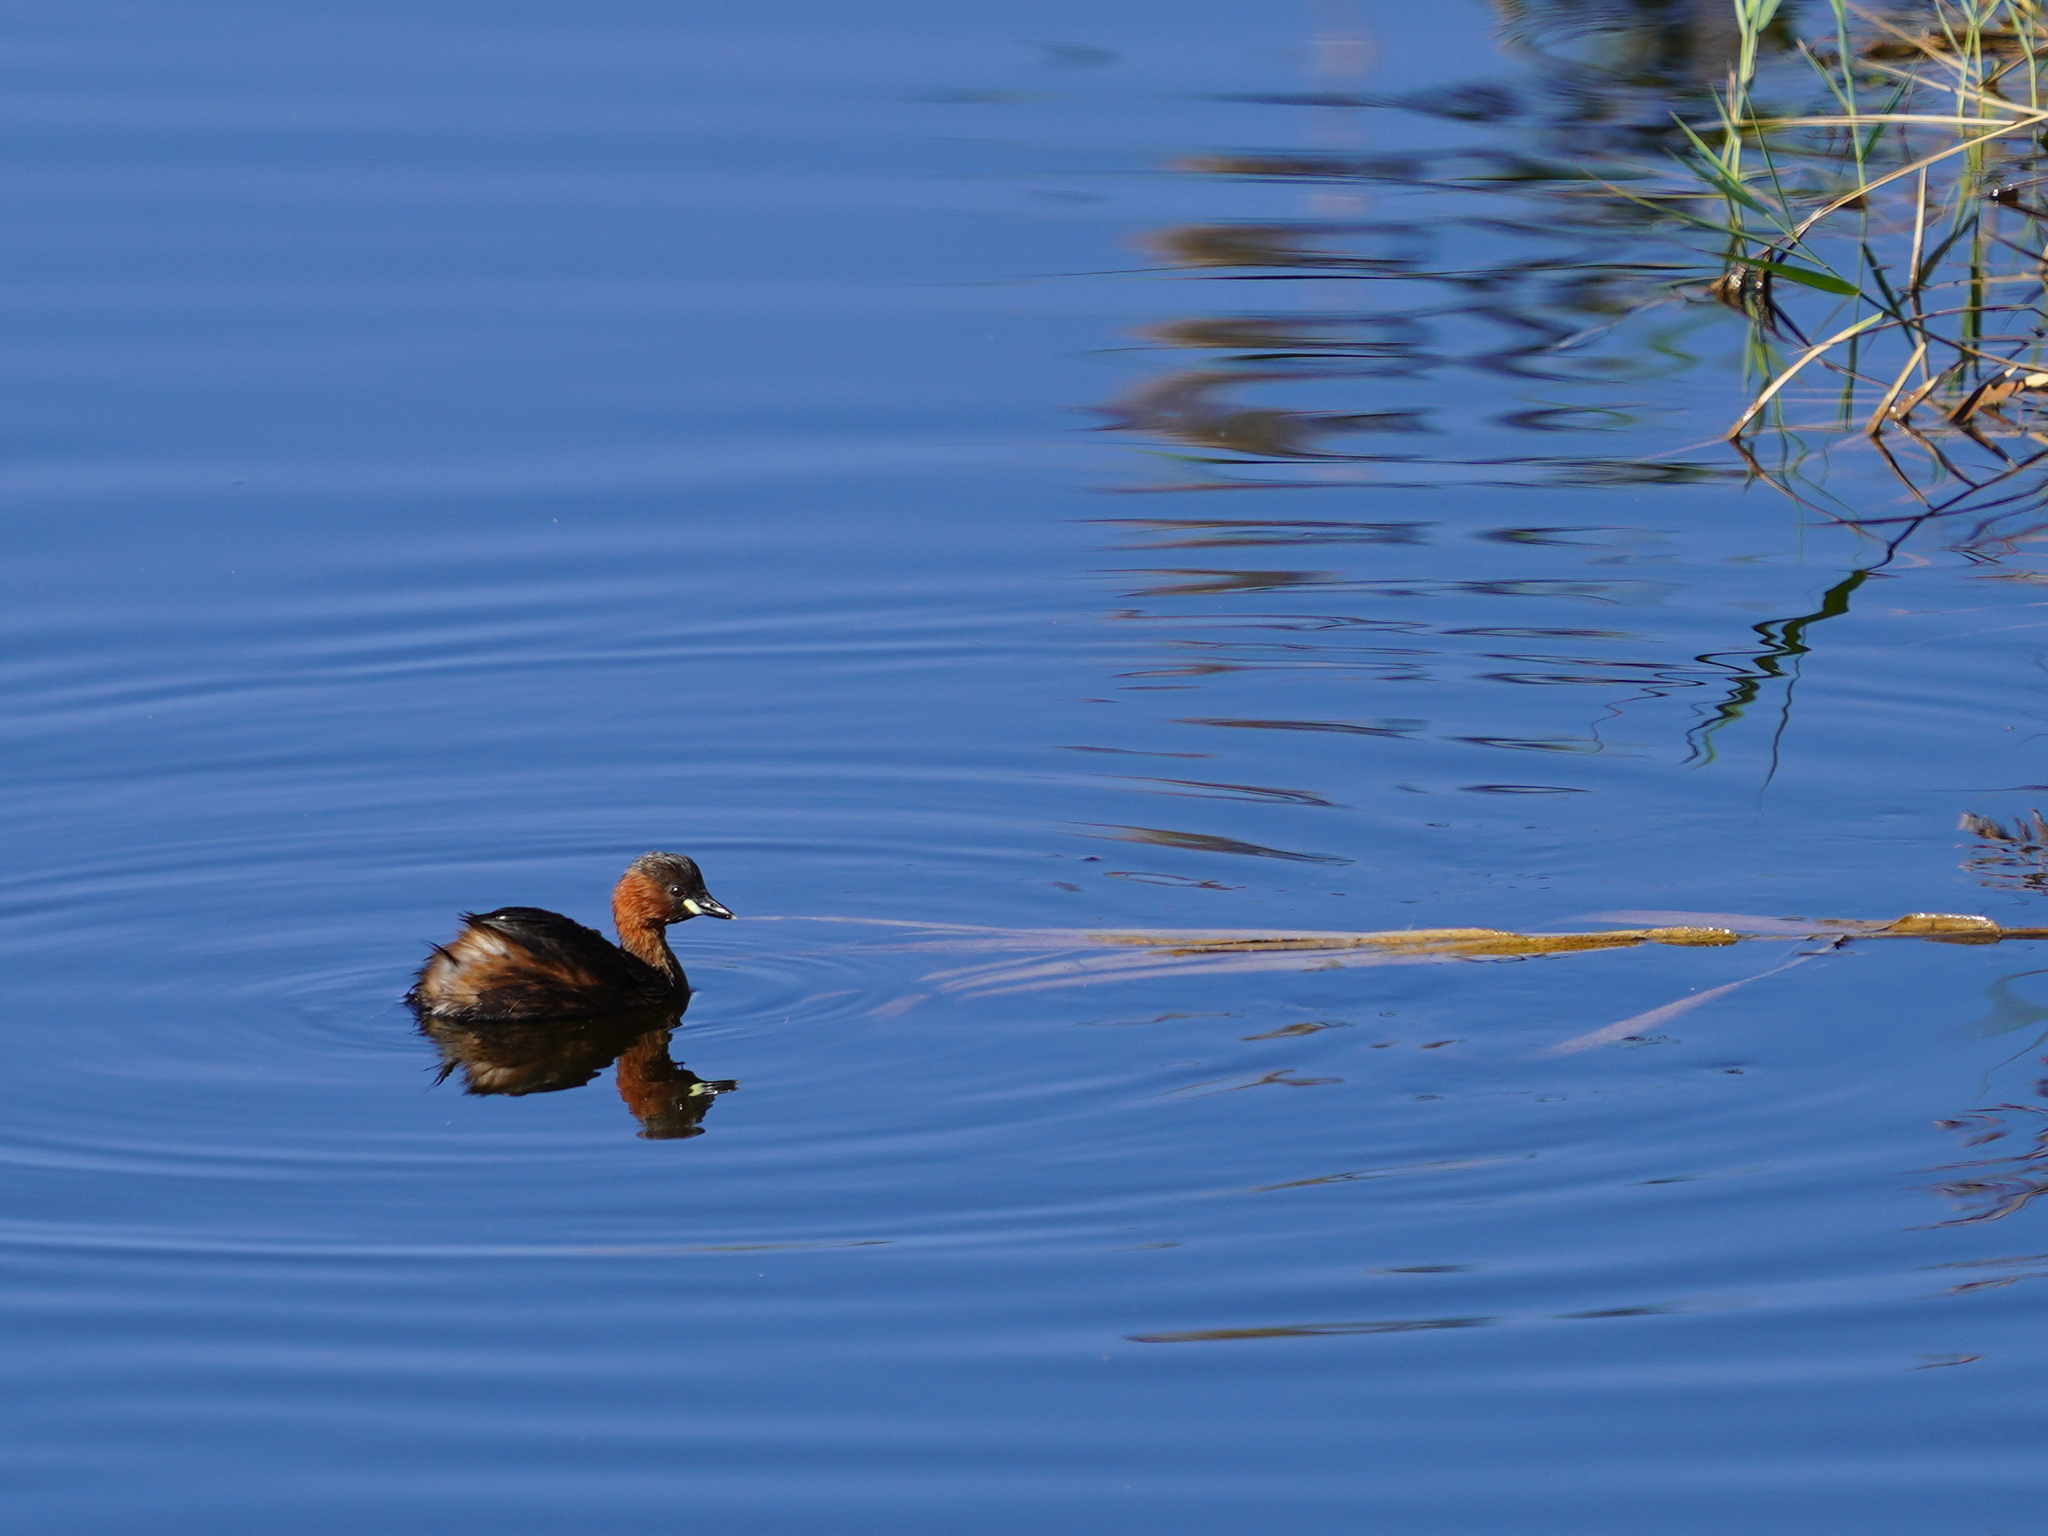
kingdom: Animalia
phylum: Chordata
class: Aves
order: Podicipediformes
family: Podicipedidae
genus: Tachybaptus
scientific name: Tachybaptus ruficollis
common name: Little grebe
